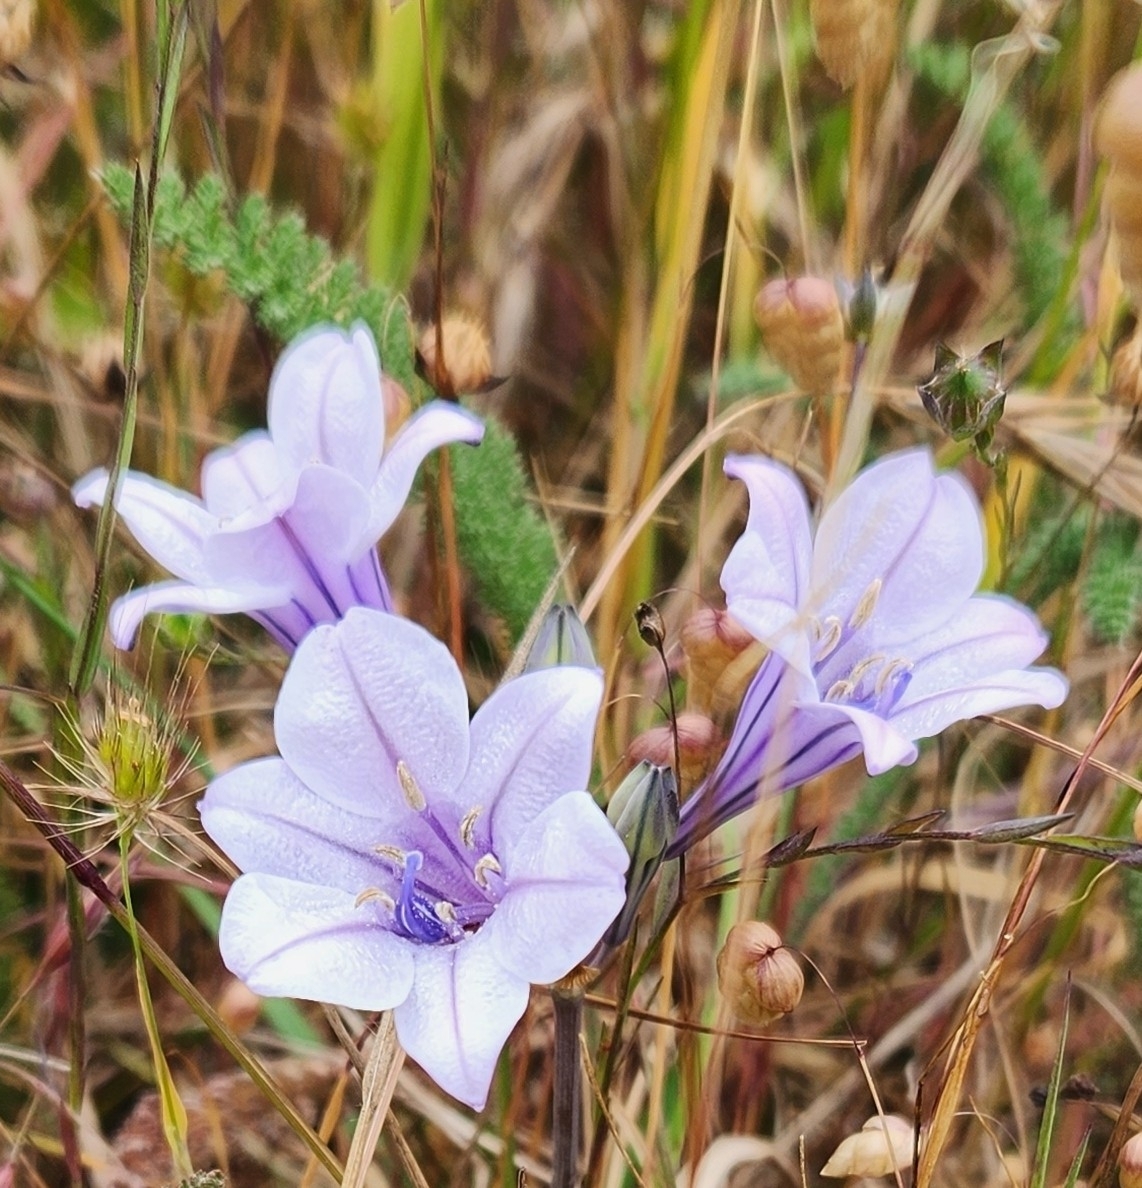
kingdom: Plantae
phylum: Tracheophyta
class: Liliopsida
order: Asparagales
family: Asparagaceae
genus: Triteleia
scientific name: Triteleia laxa
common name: Triplet-lily
